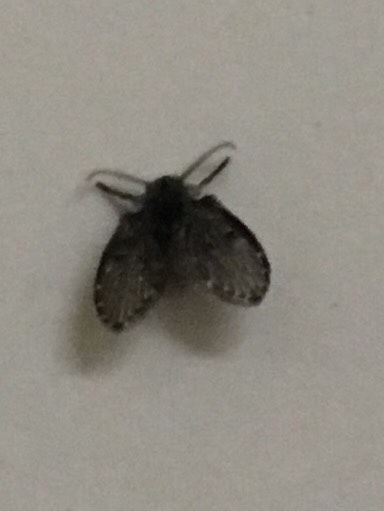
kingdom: Animalia
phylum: Arthropoda
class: Insecta
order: Diptera
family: Psychodidae
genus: Clogmia
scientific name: Clogmia albipunctatus
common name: White-spotted moth fly
